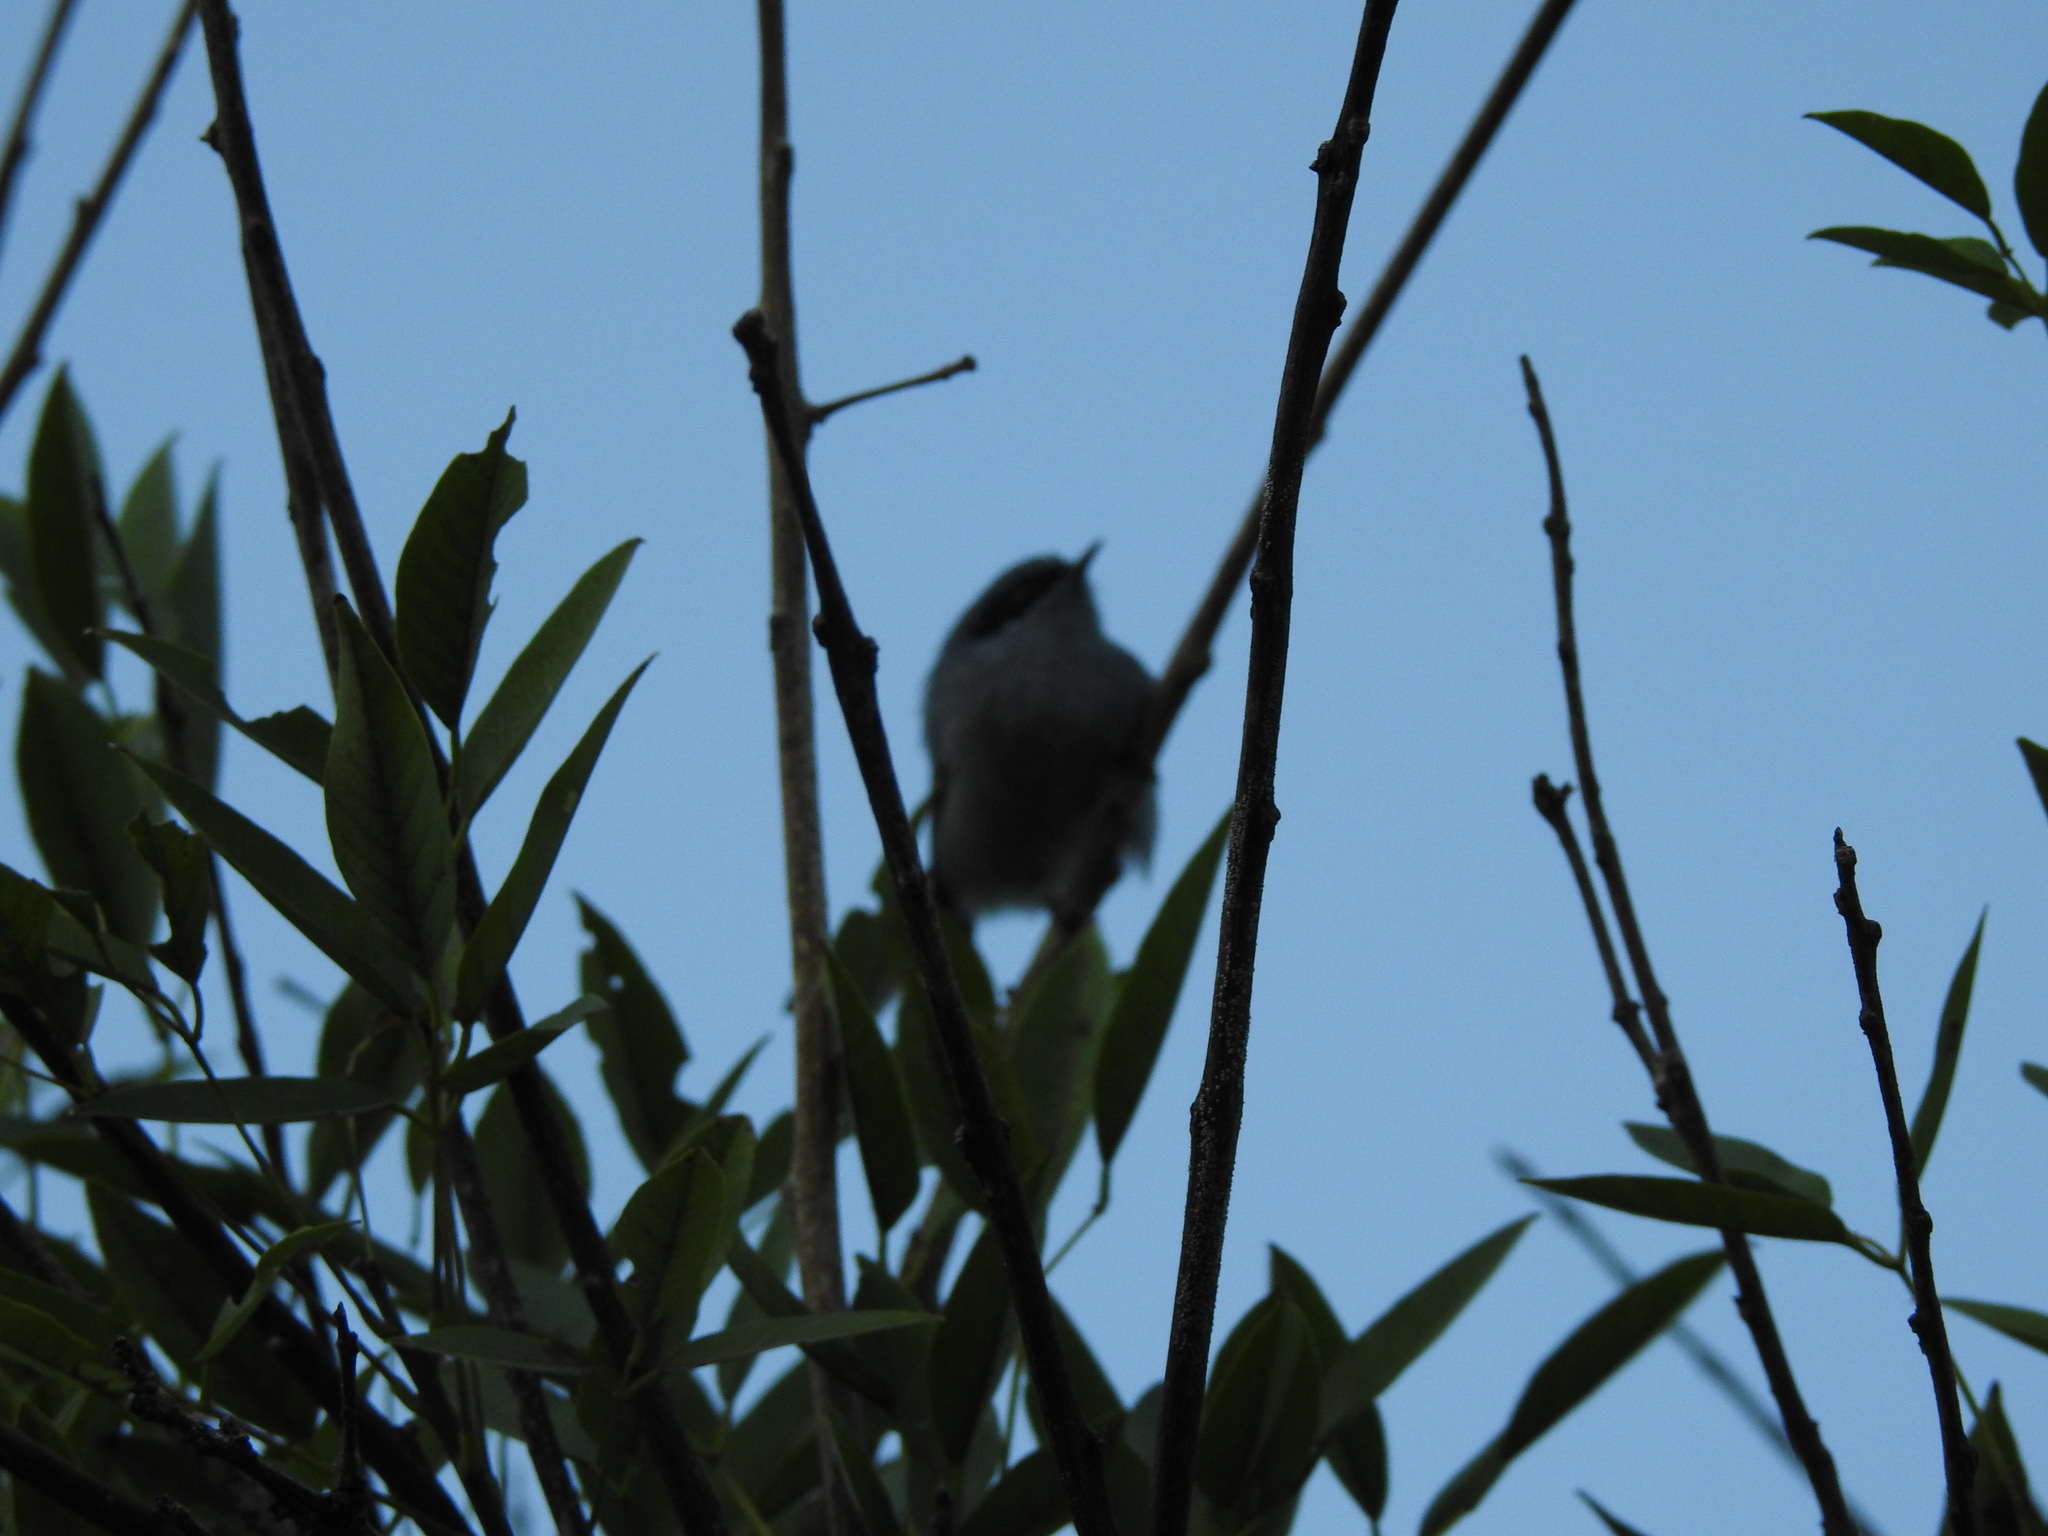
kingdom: Animalia
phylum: Chordata
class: Aves
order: Passeriformes
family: Polioptilidae
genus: Polioptila
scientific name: Polioptila dumicola
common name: Masked gnatcatcher
